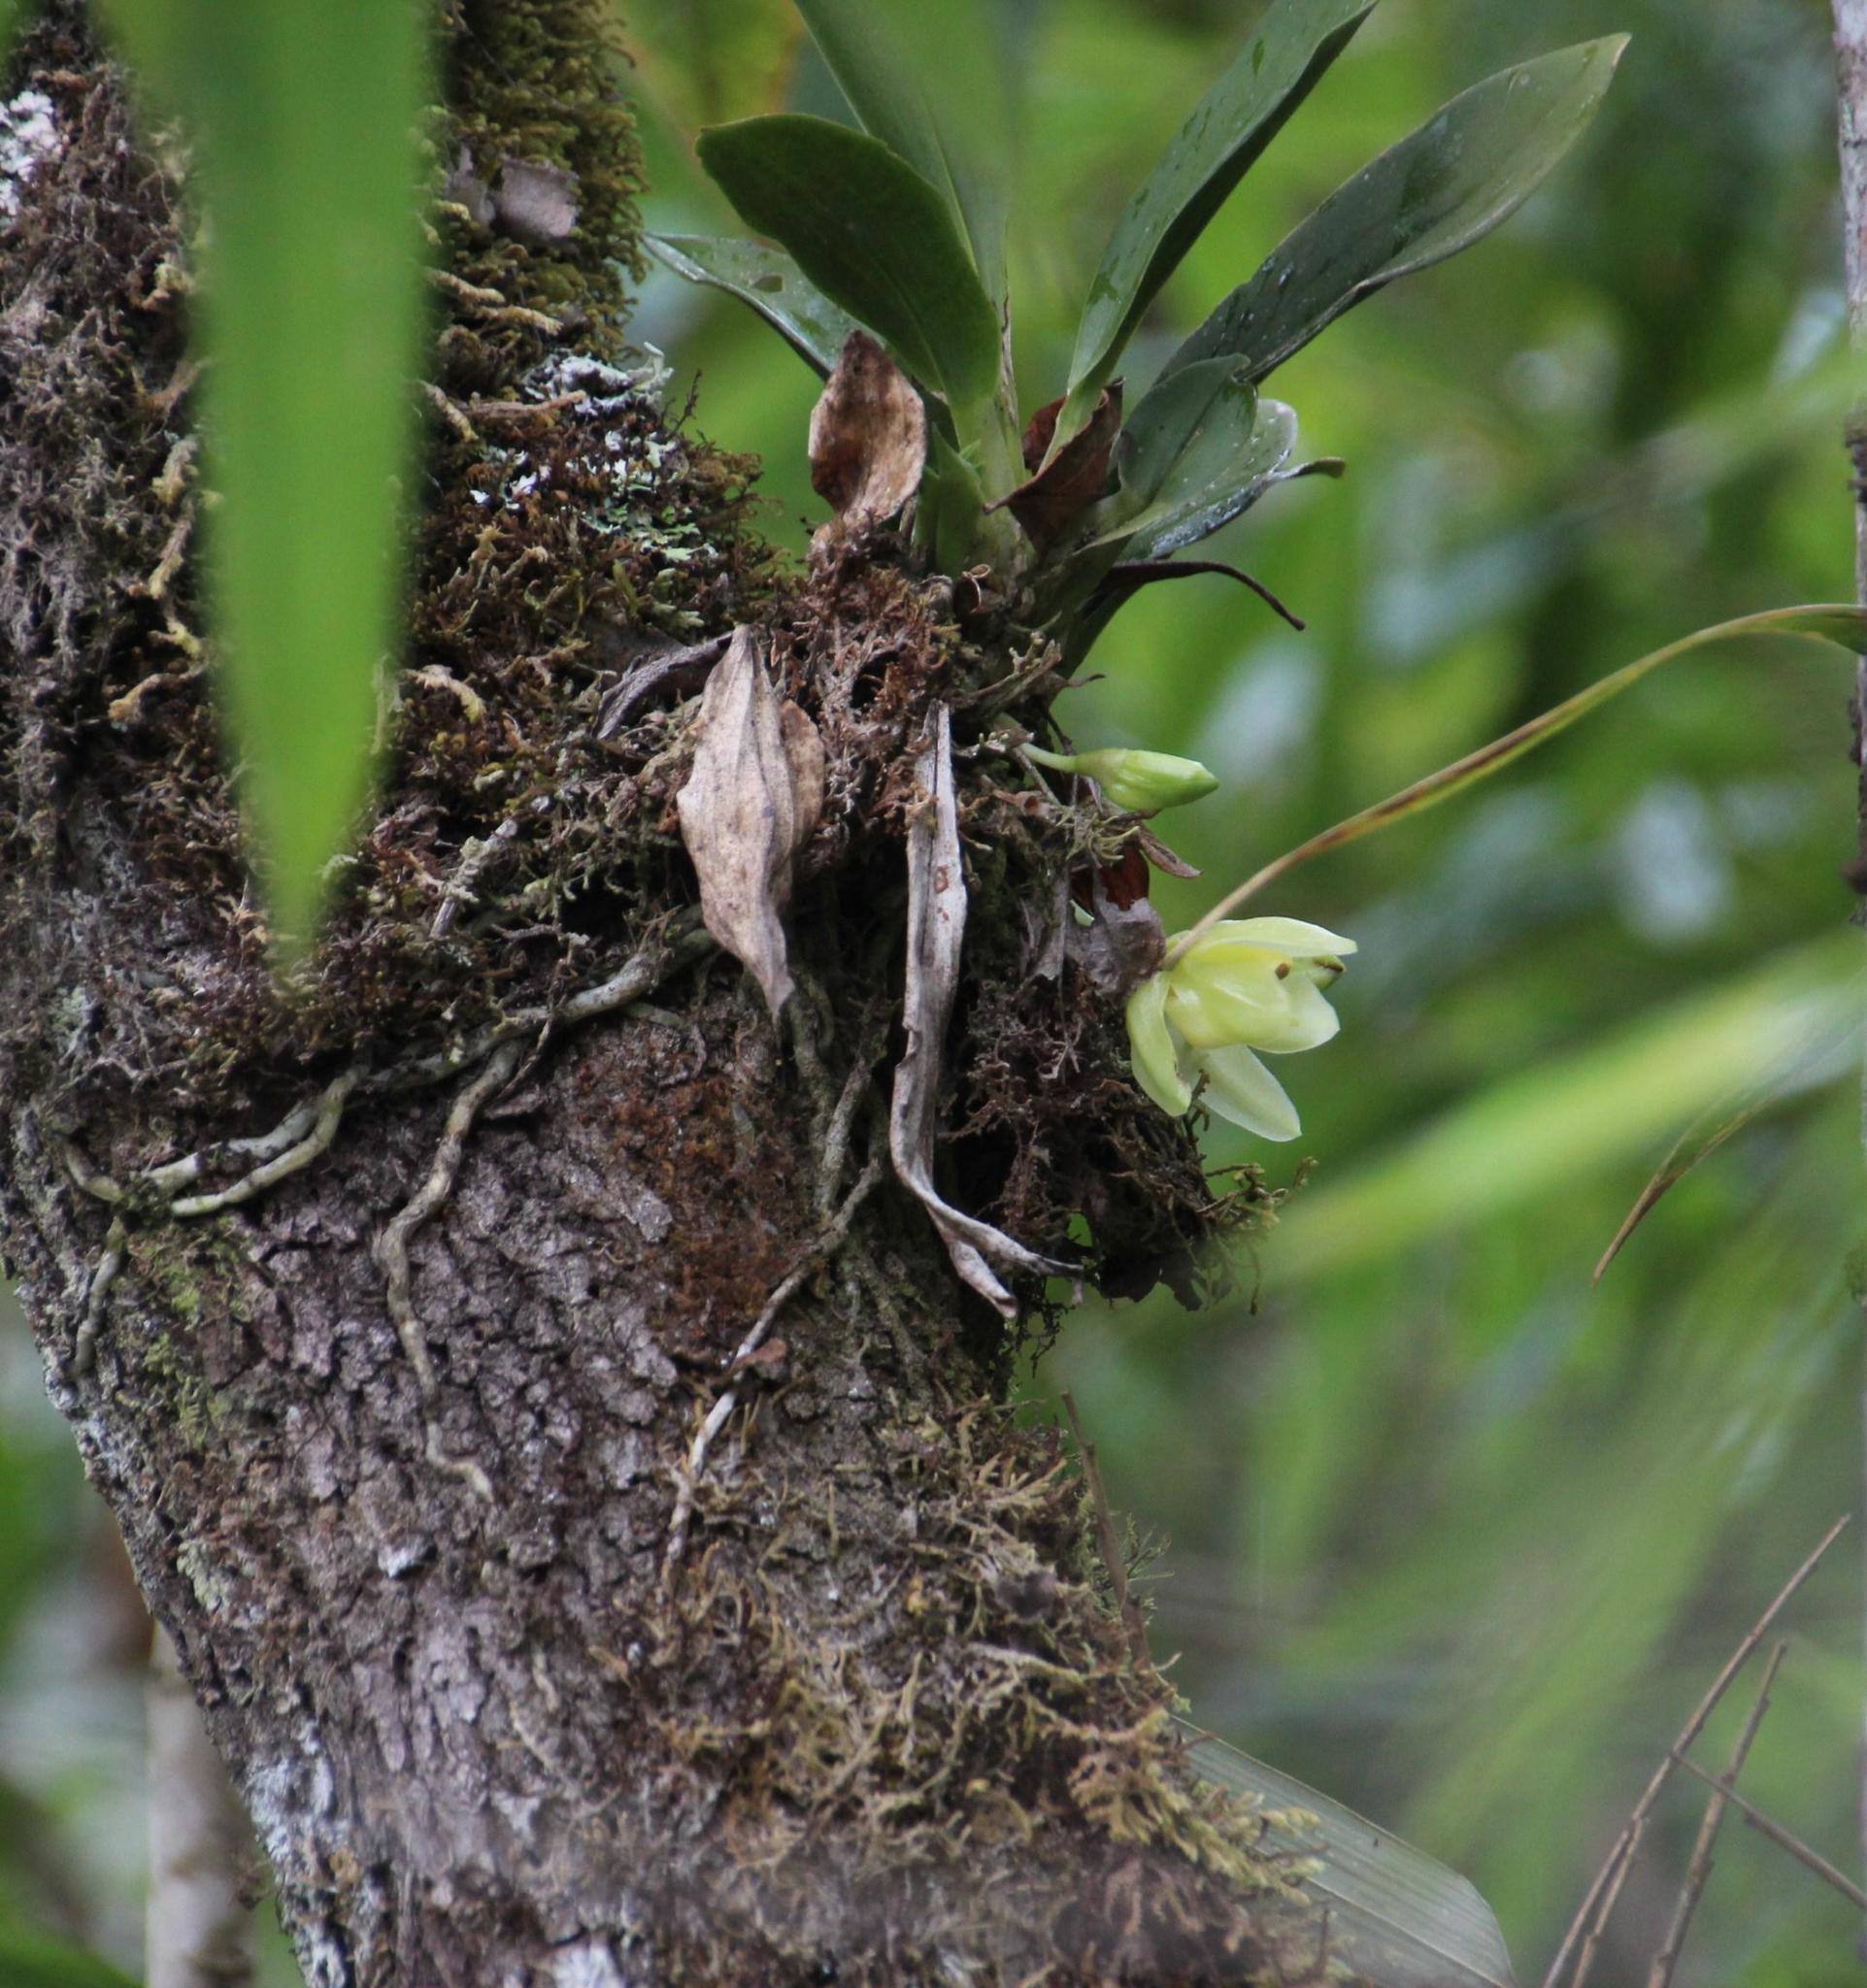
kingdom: Plantae
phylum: Tracheophyta
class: Liliopsida
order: Asparagales
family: Orchidaceae
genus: Stenia
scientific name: Stenia angustilabia
